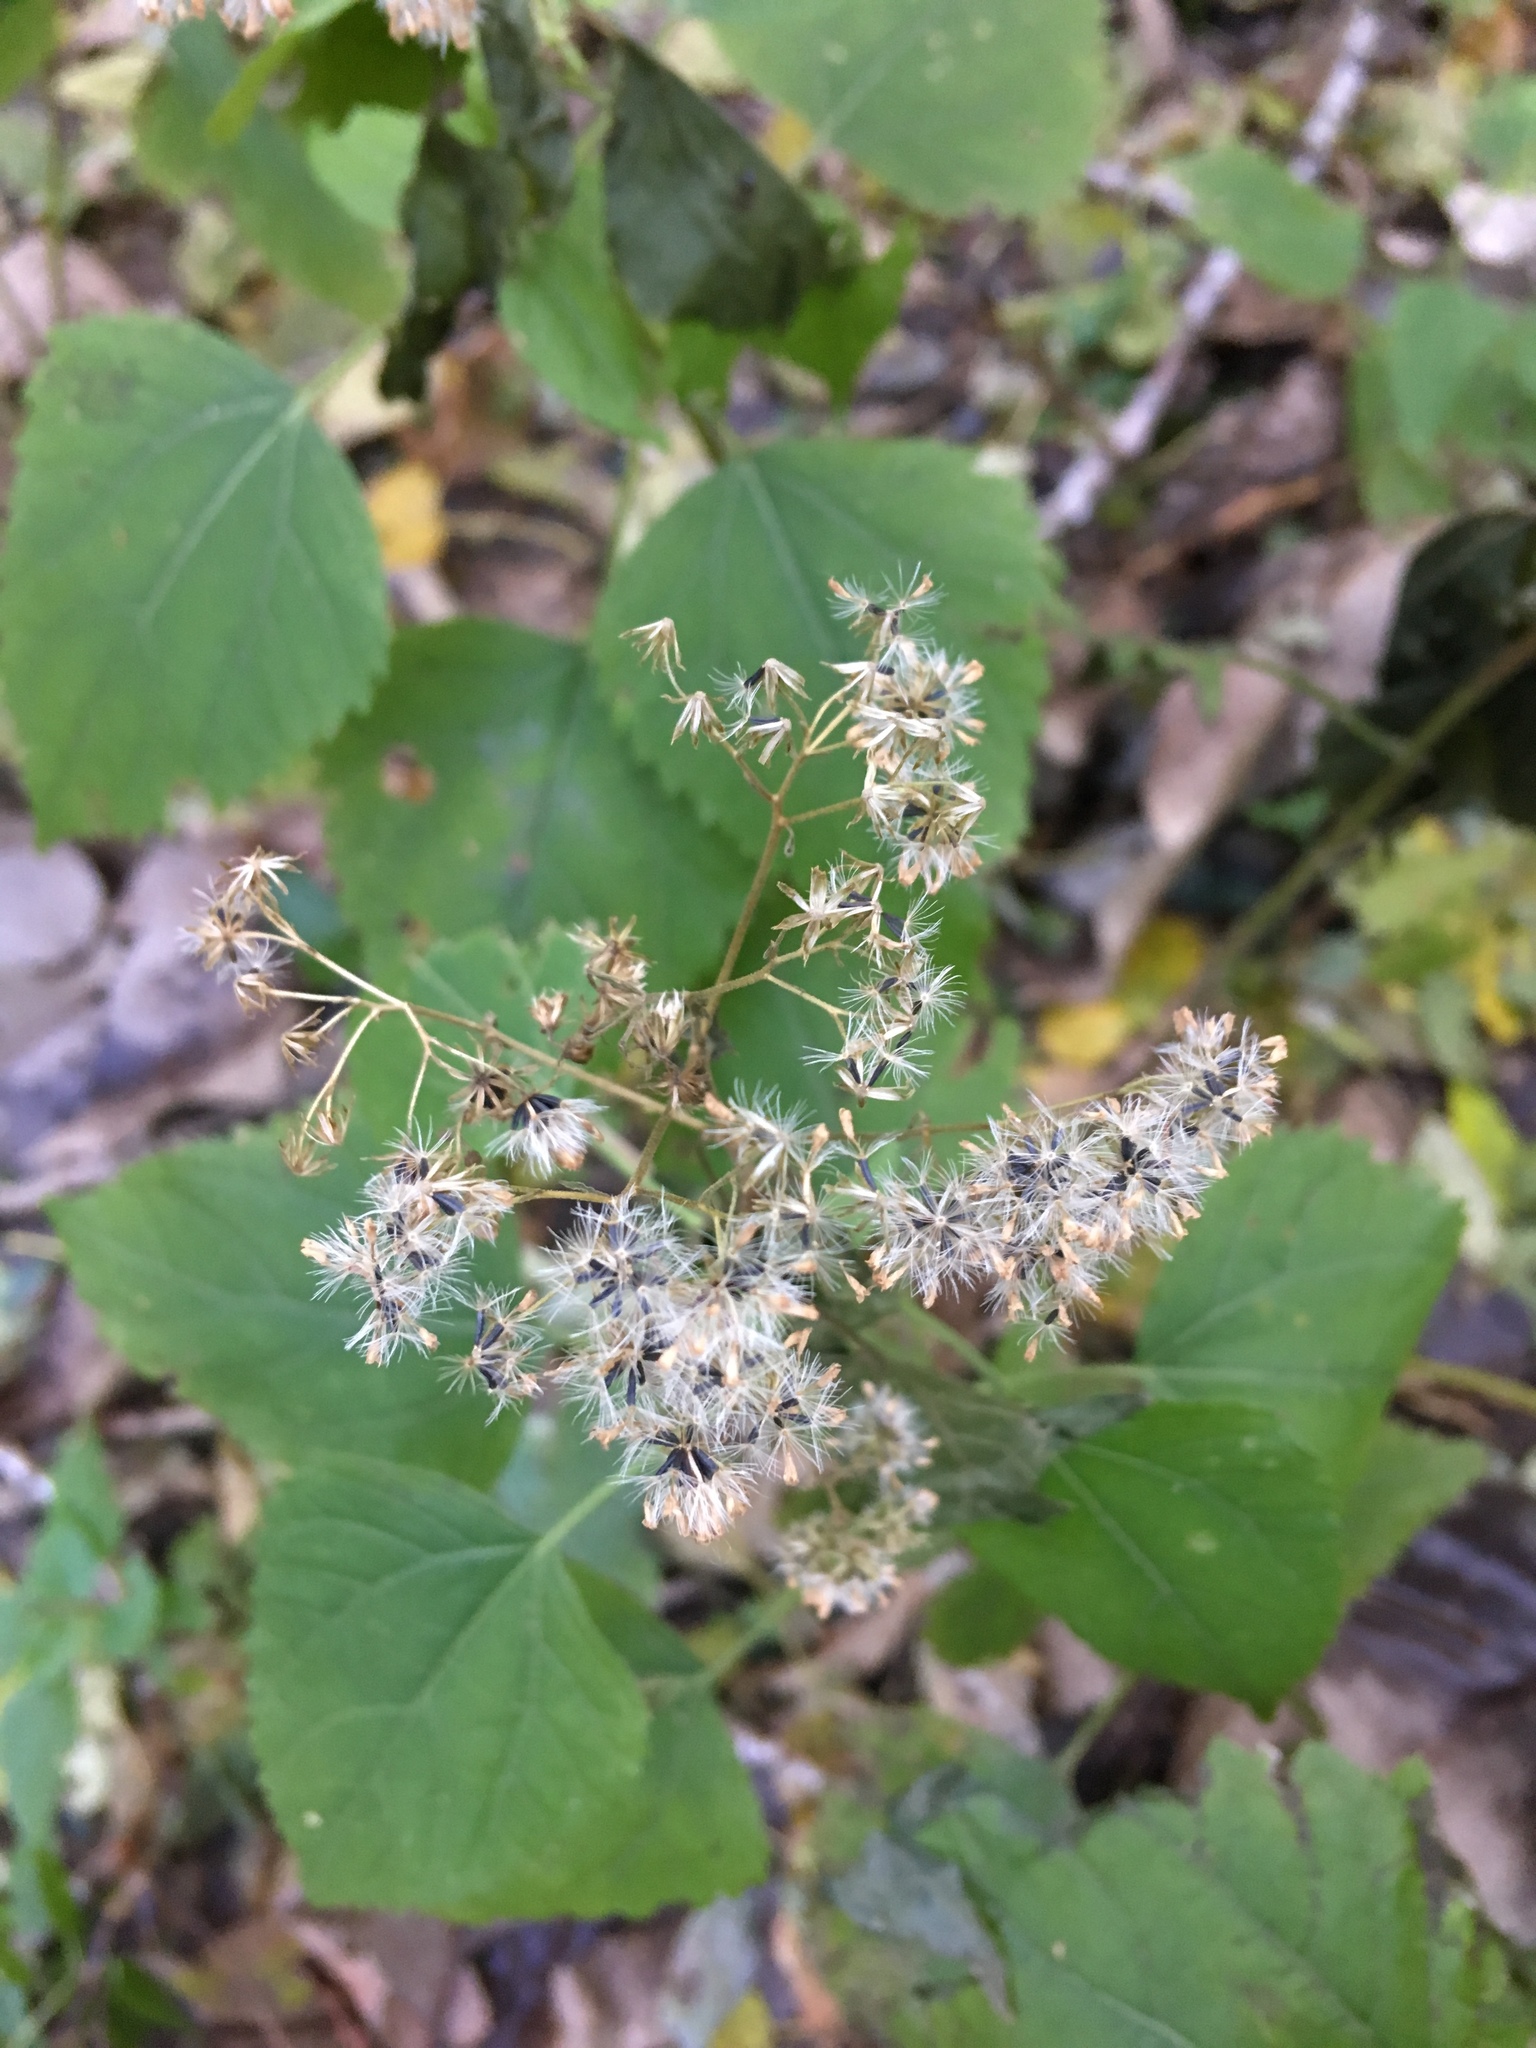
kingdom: Plantae
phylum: Tracheophyta
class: Magnoliopsida
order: Asterales
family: Asteraceae
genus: Ageratina
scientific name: Ageratina altissima
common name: White snakeroot
